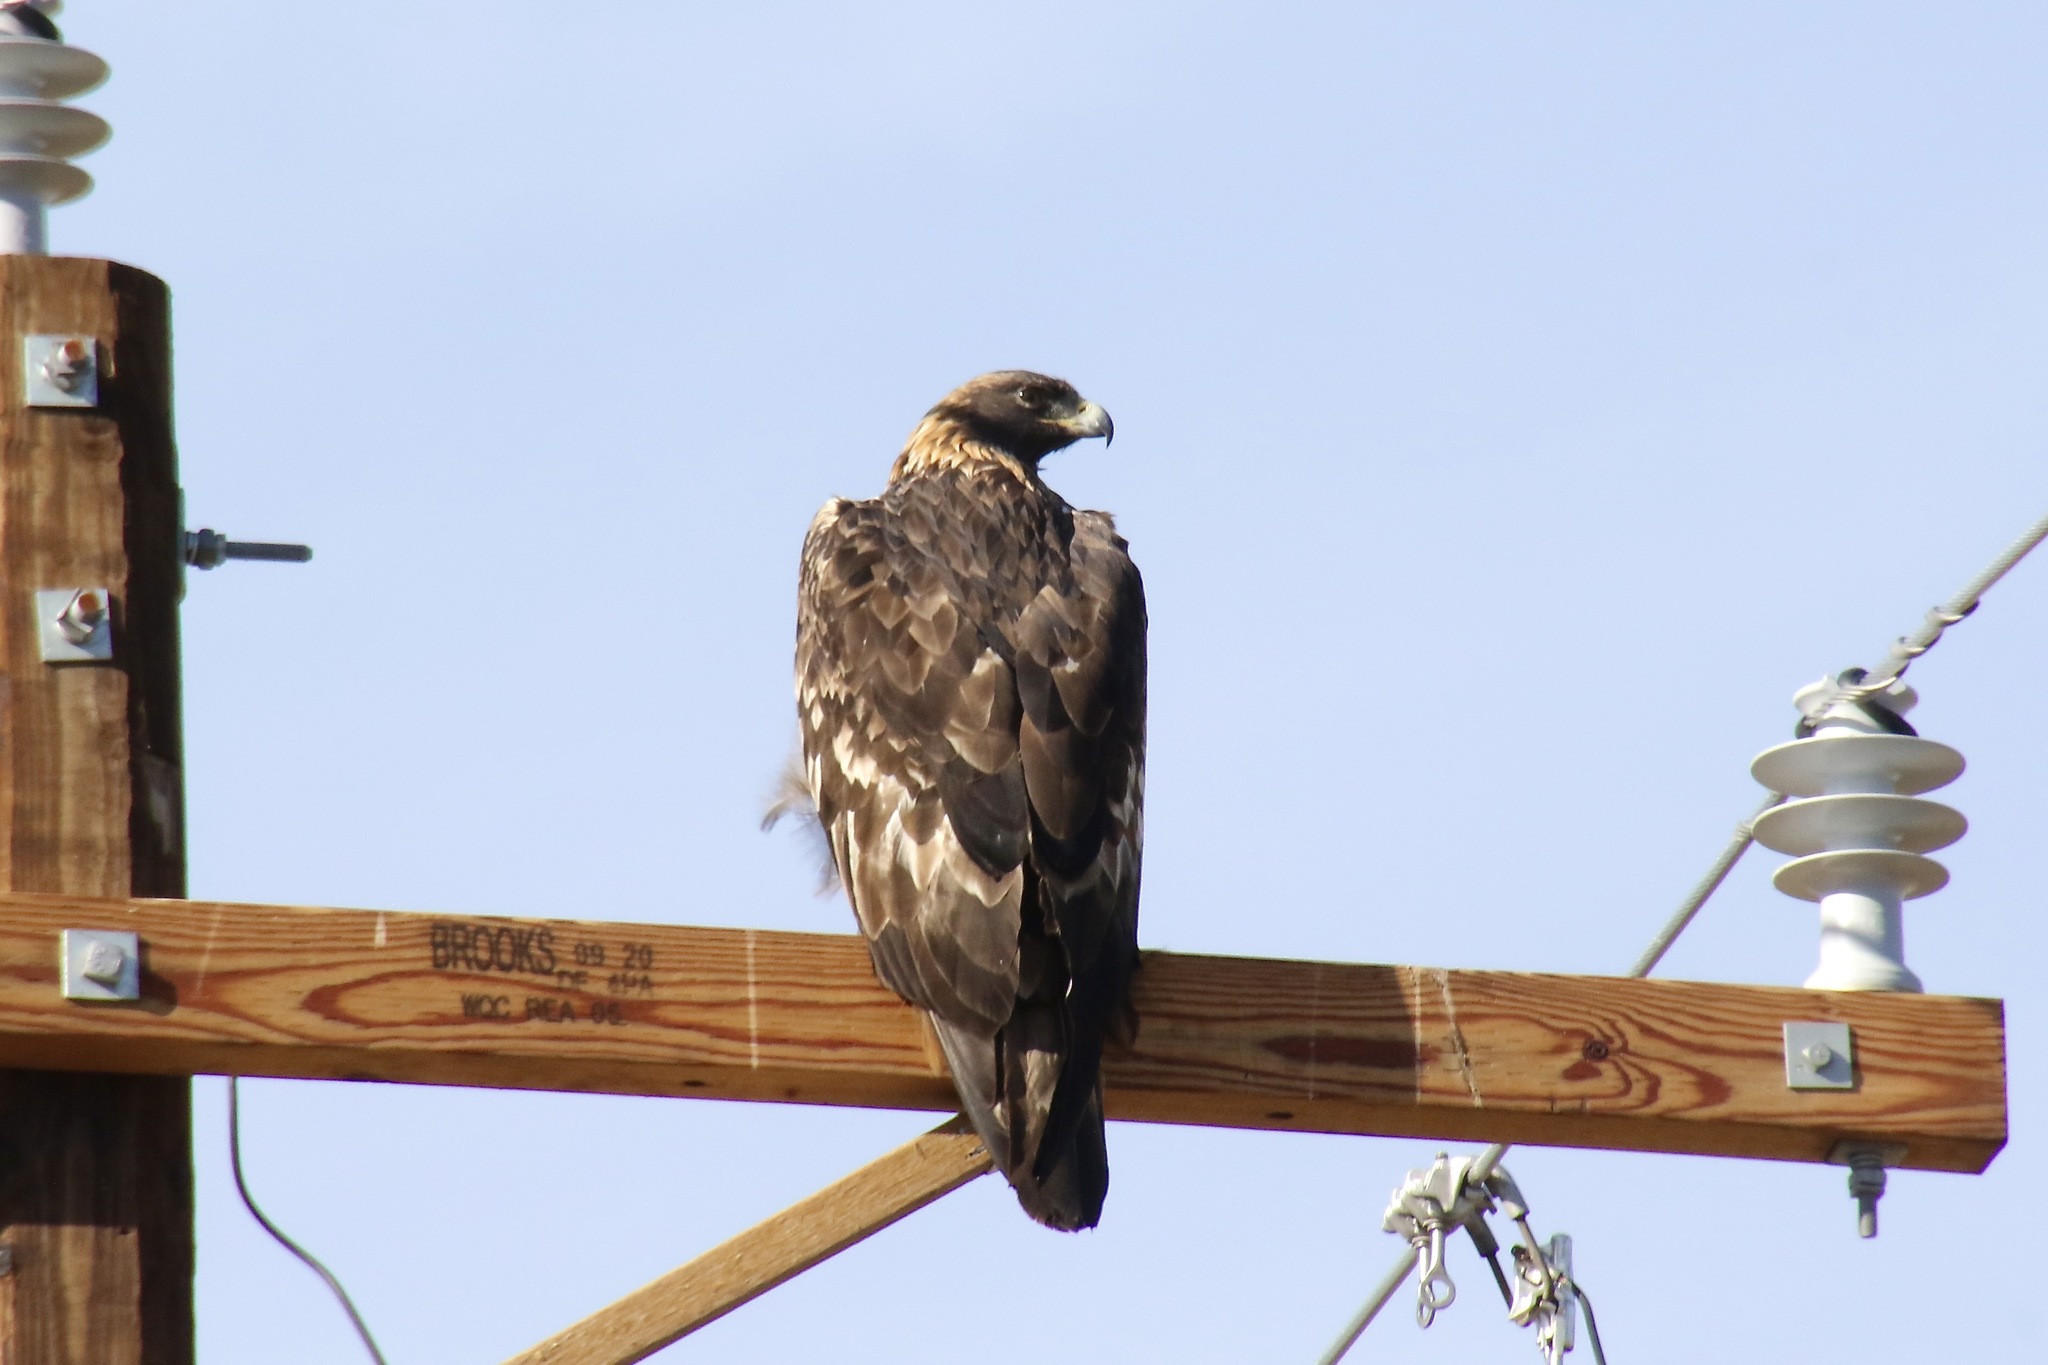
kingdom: Animalia
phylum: Chordata
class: Aves
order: Accipitriformes
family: Accipitridae
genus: Aquila
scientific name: Aquila chrysaetos
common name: Golden eagle
